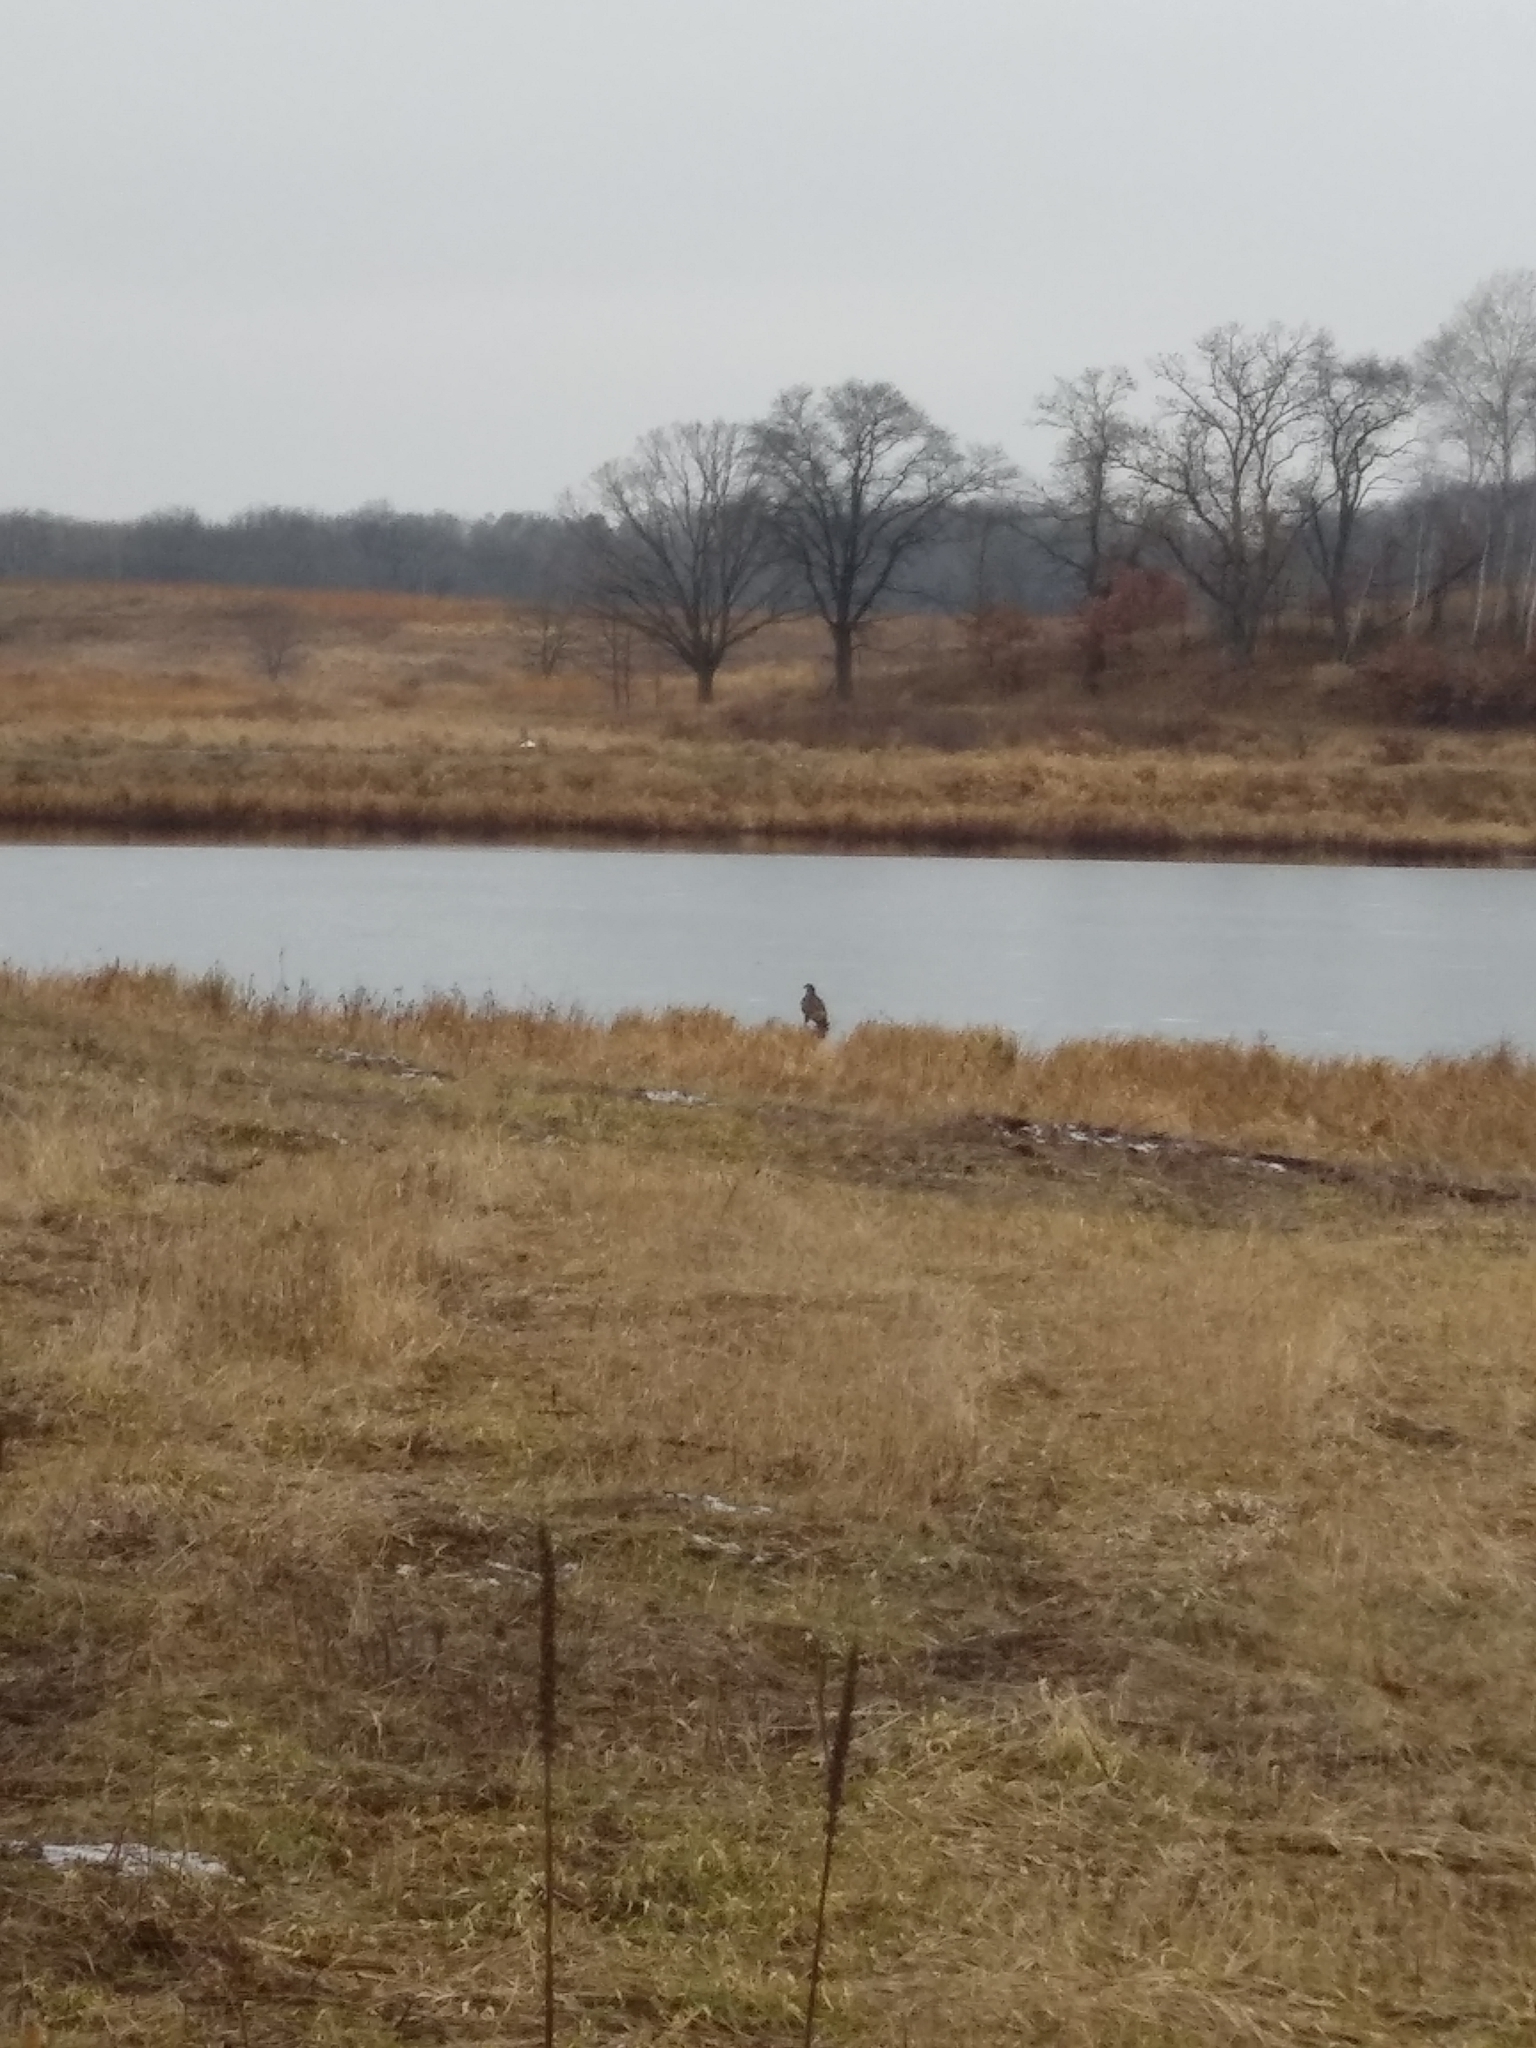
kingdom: Animalia
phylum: Chordata
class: Aves
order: Accipitriformes
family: Accipitridae
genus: Haliaeetus
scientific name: Haliaeetus leucocephalus
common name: Bald eagle
